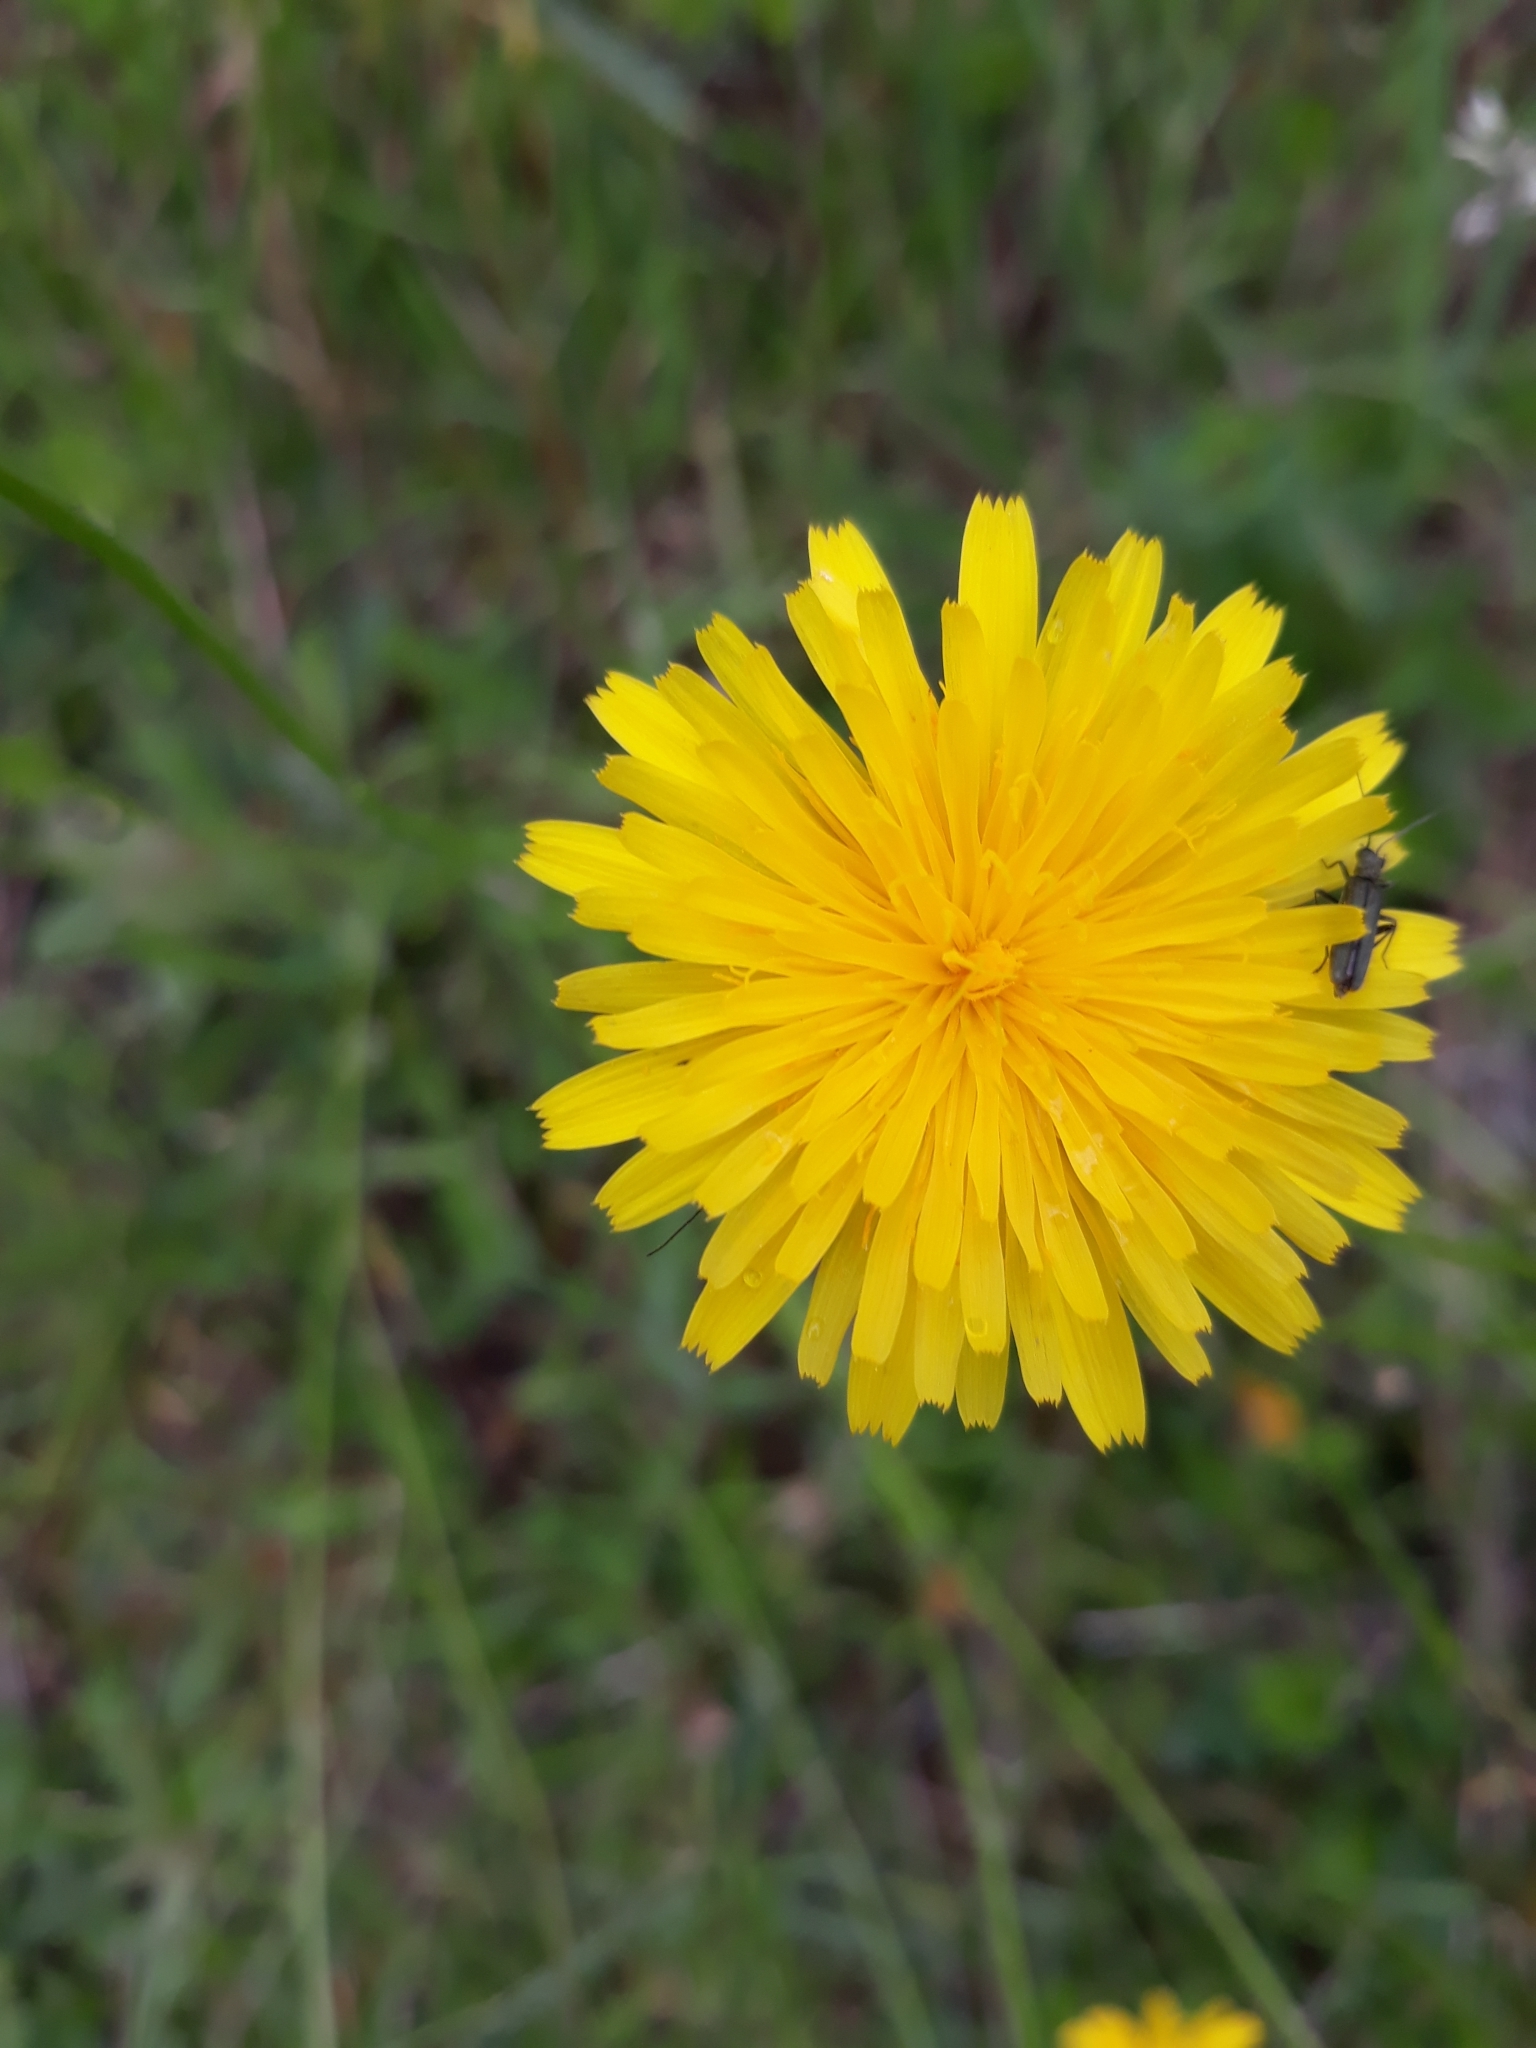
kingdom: Plantae
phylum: Tracheophyta
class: Magnoliopsida
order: Asterales
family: Asteraceae
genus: Scorzoneroides
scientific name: Scorzoneroides autumnalis
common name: Autumn hawkbit
